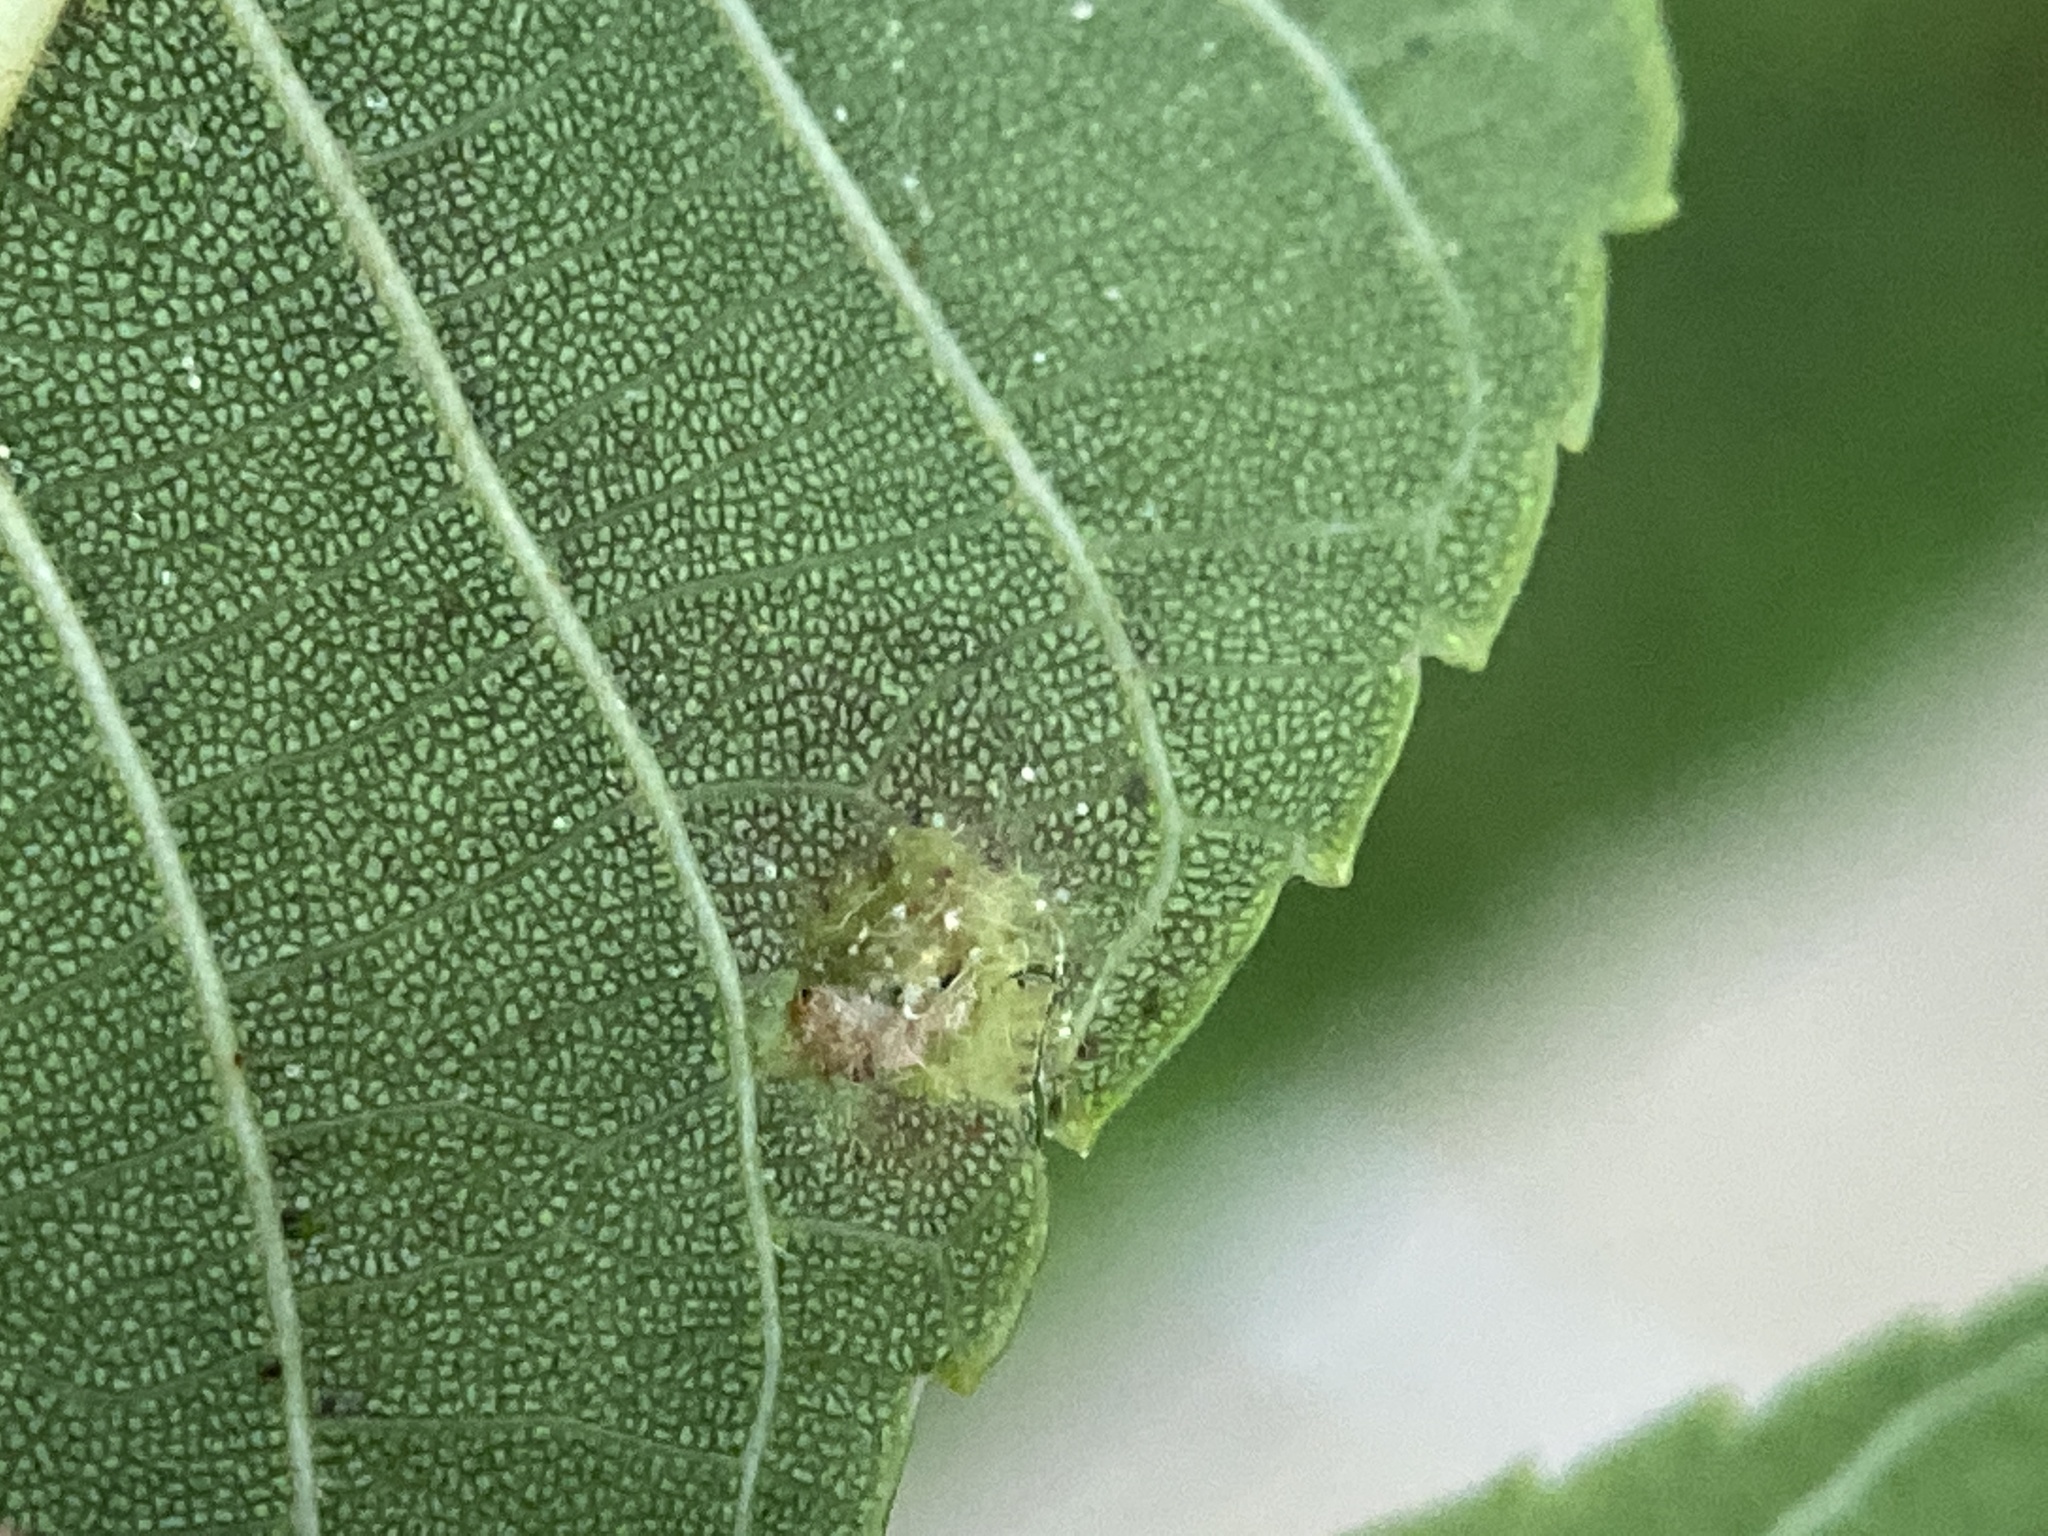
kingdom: Animalia
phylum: Arthropoda
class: Arachnida
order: Trombidiformes
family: Eriophyidae
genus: Aceria
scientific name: Aceria brachytarsus
